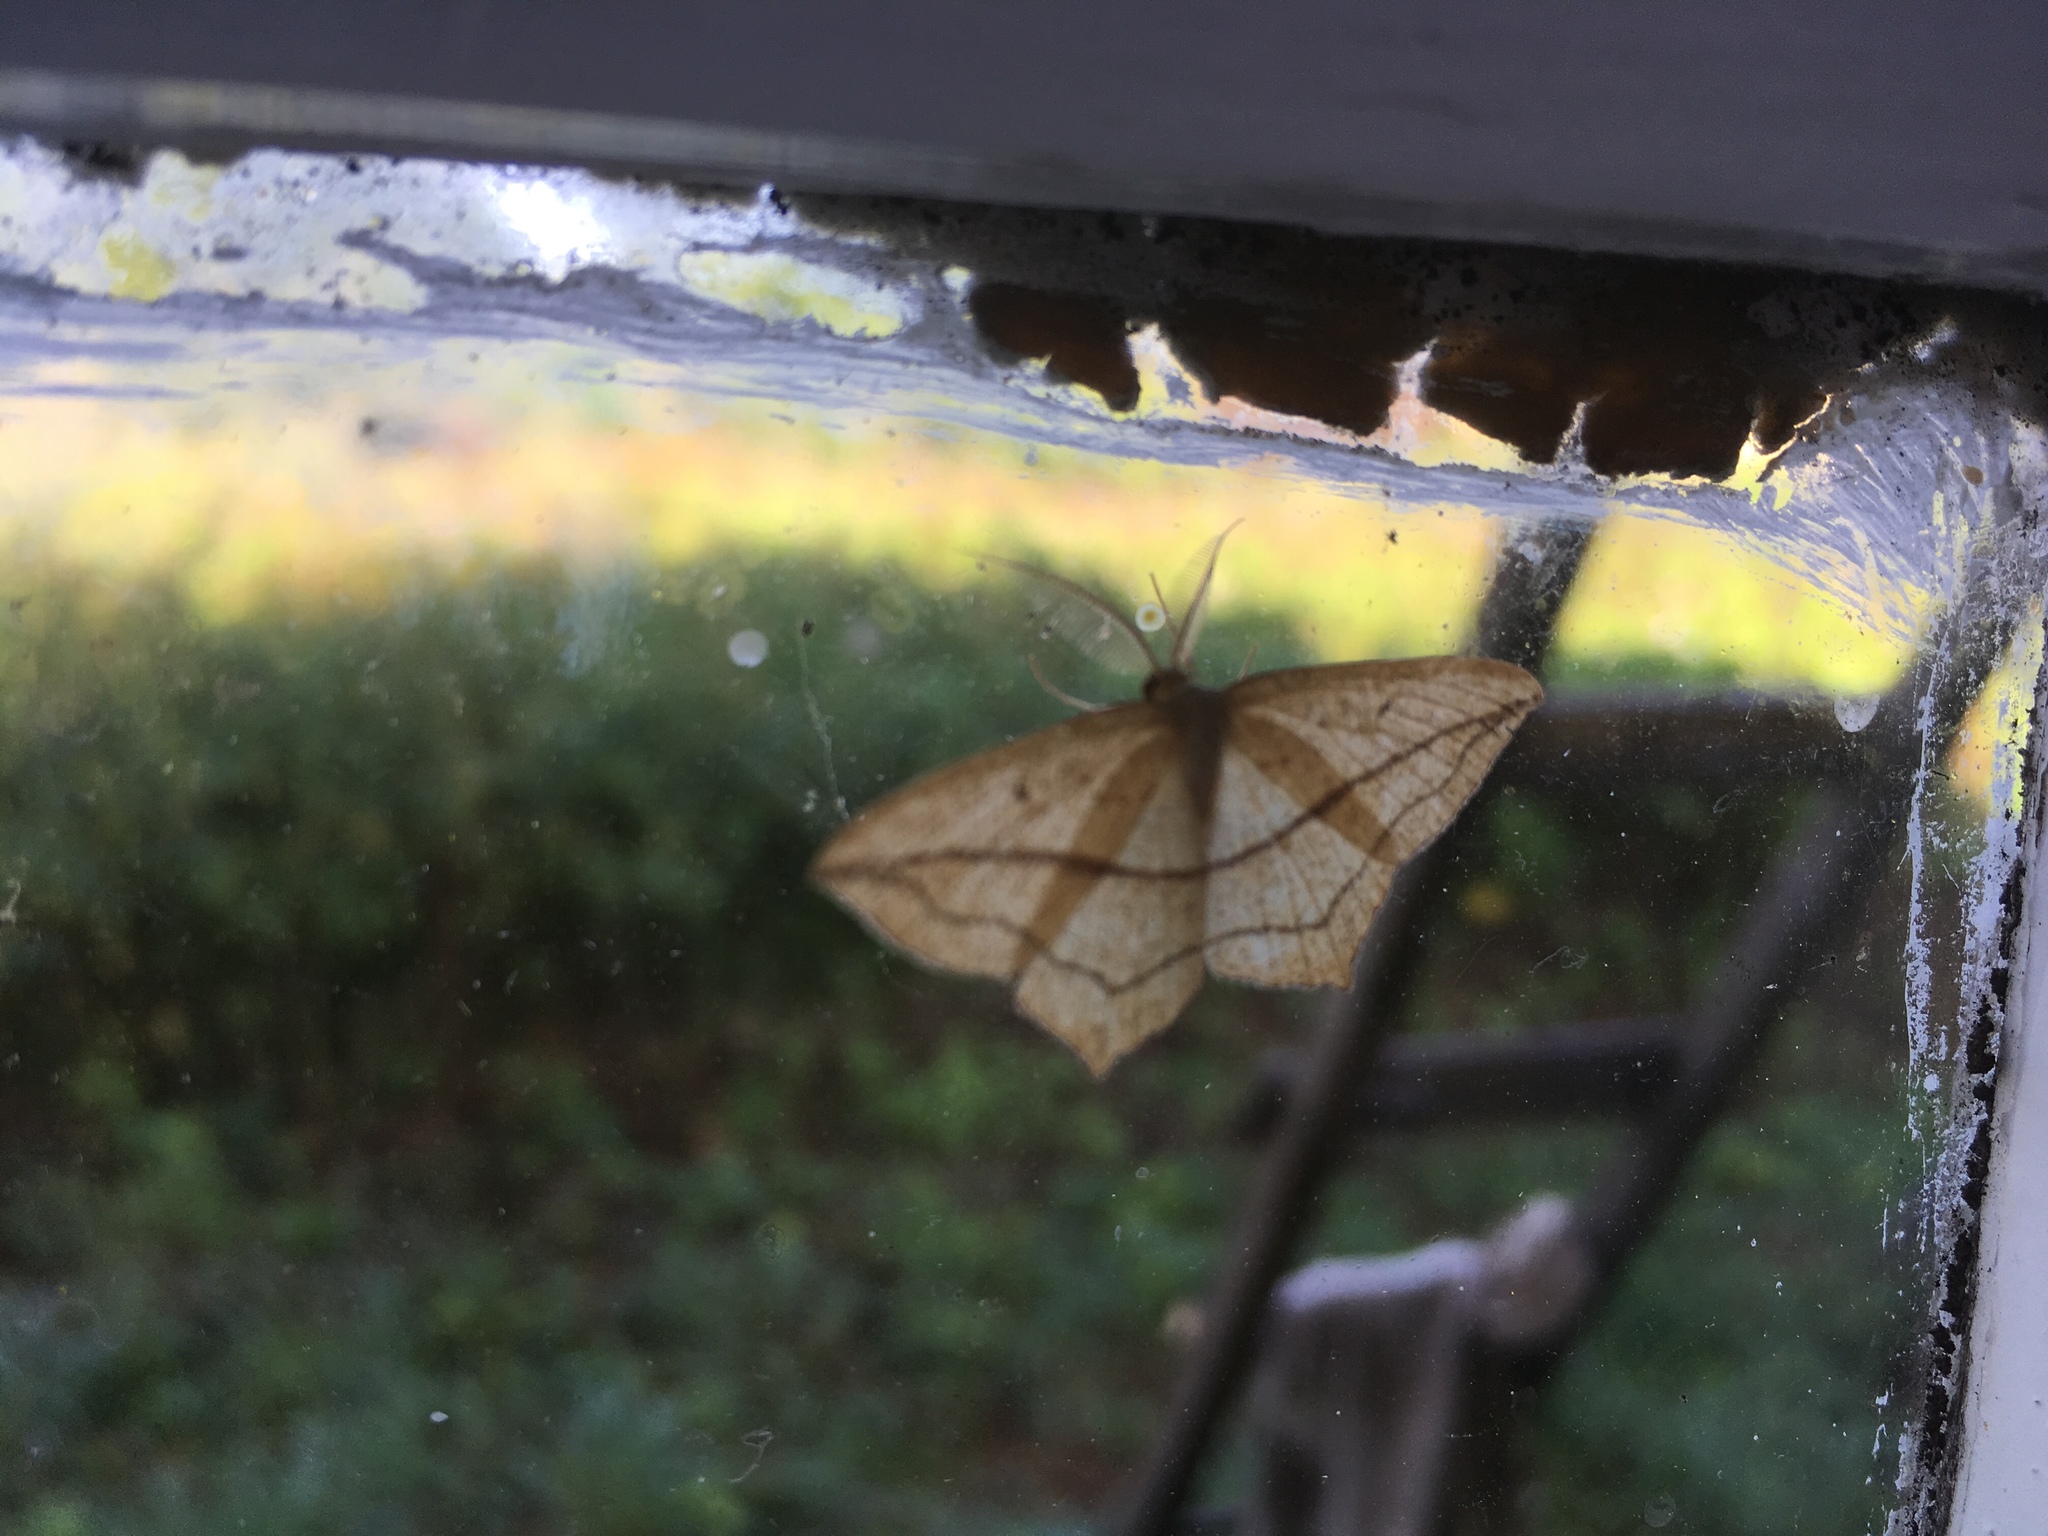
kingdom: Animalia
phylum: Arthropoda
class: Insecta
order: Lepidoptera
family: Geometridae
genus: Timandra
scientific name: Timandra comae
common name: Blood-vein
